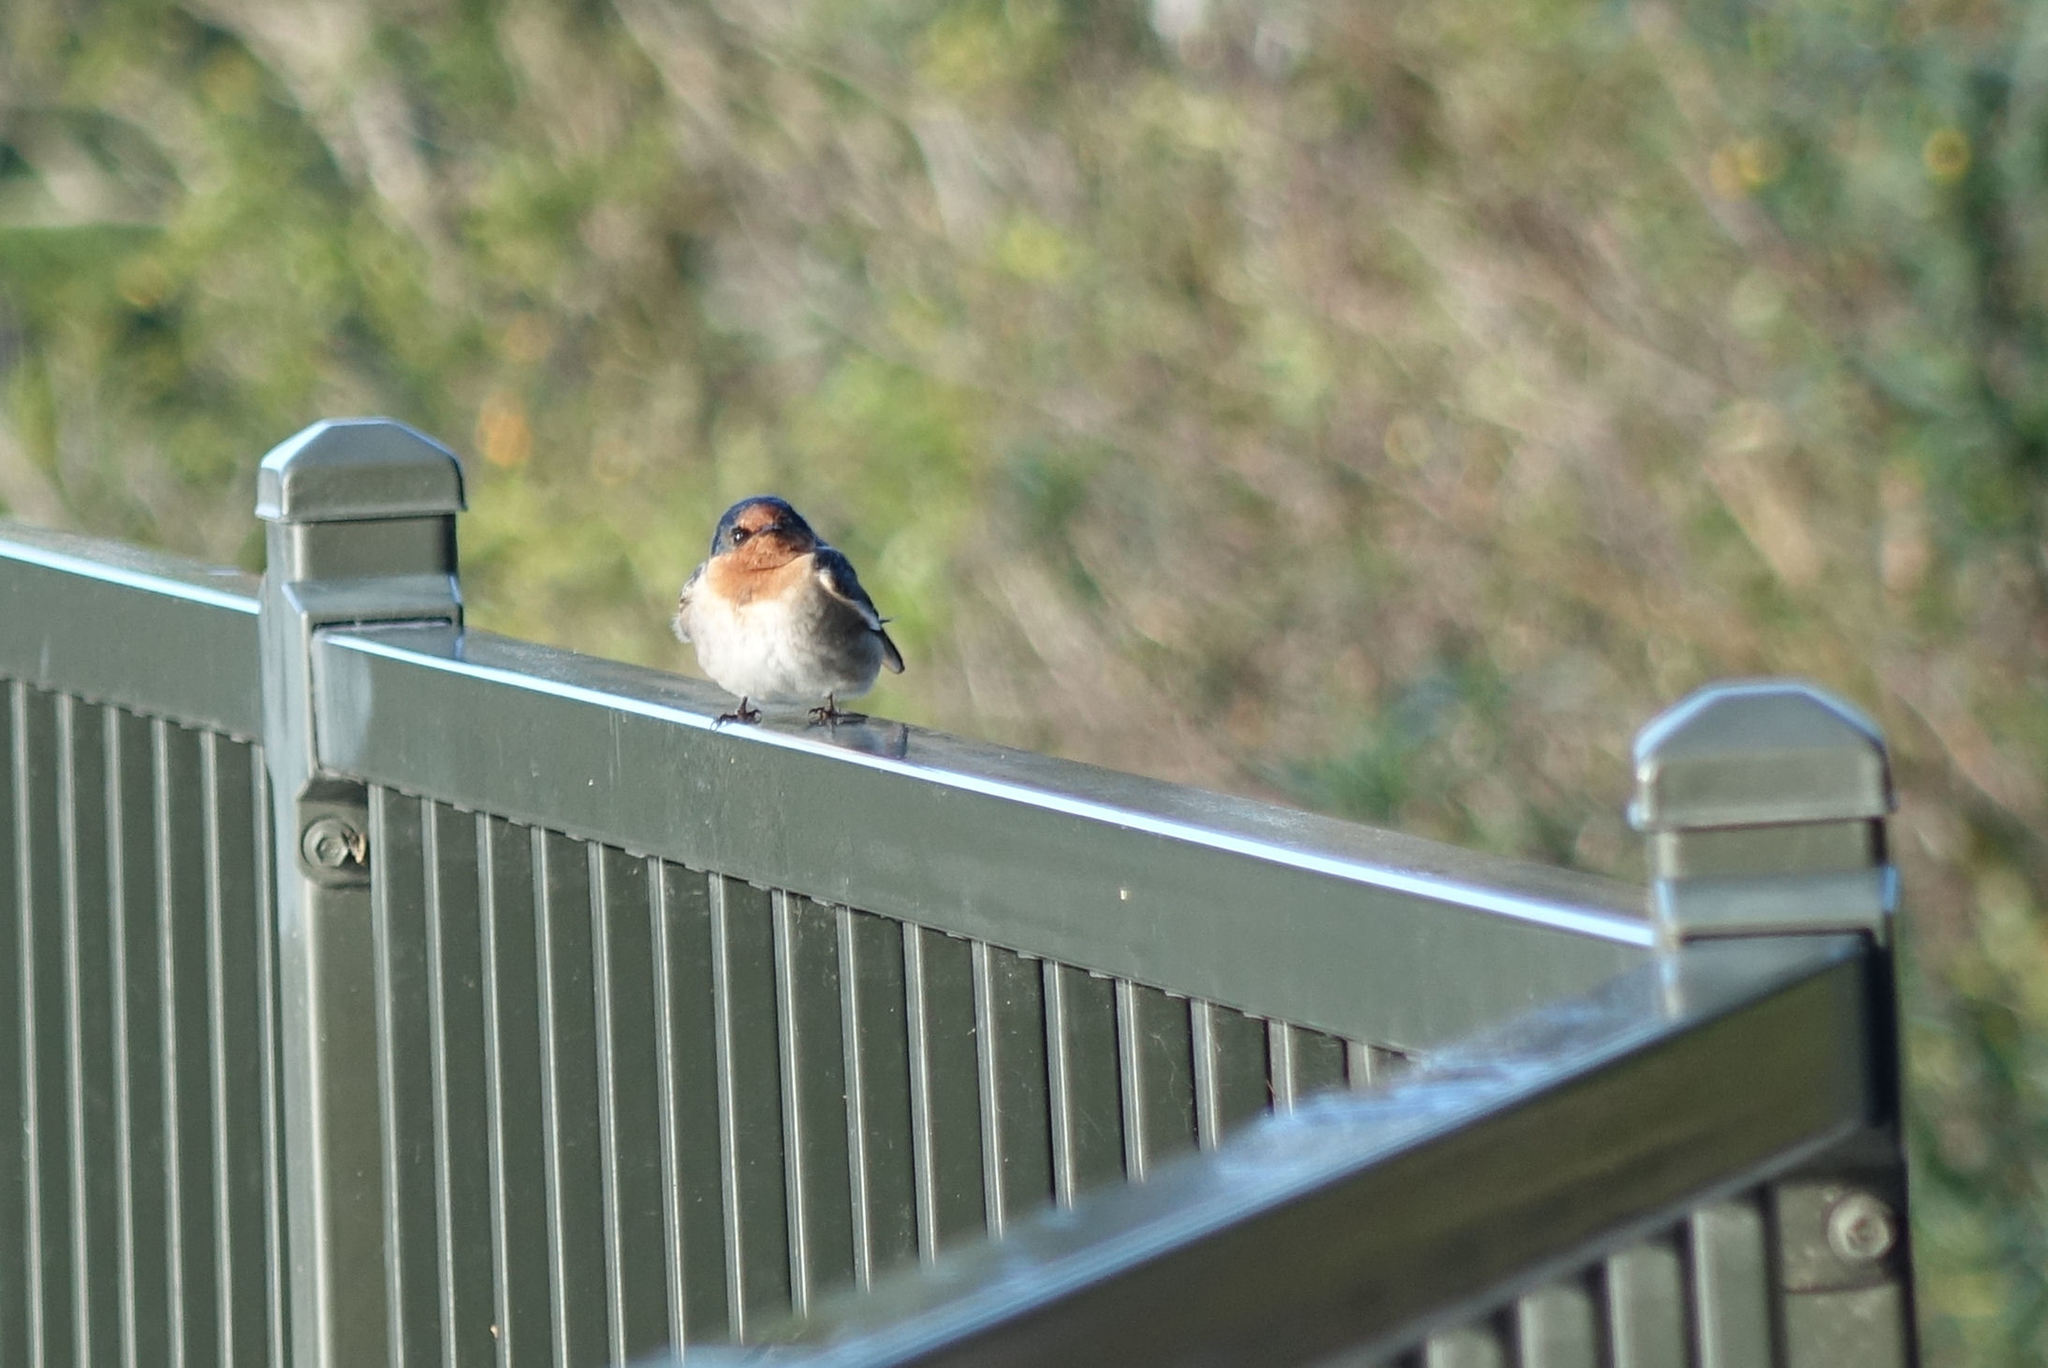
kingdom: Animalia
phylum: Chordata
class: Aves
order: Passeriformes
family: Hirundinidae
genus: Hirundo
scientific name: Hirundo neoxena
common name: Welcome swallow
